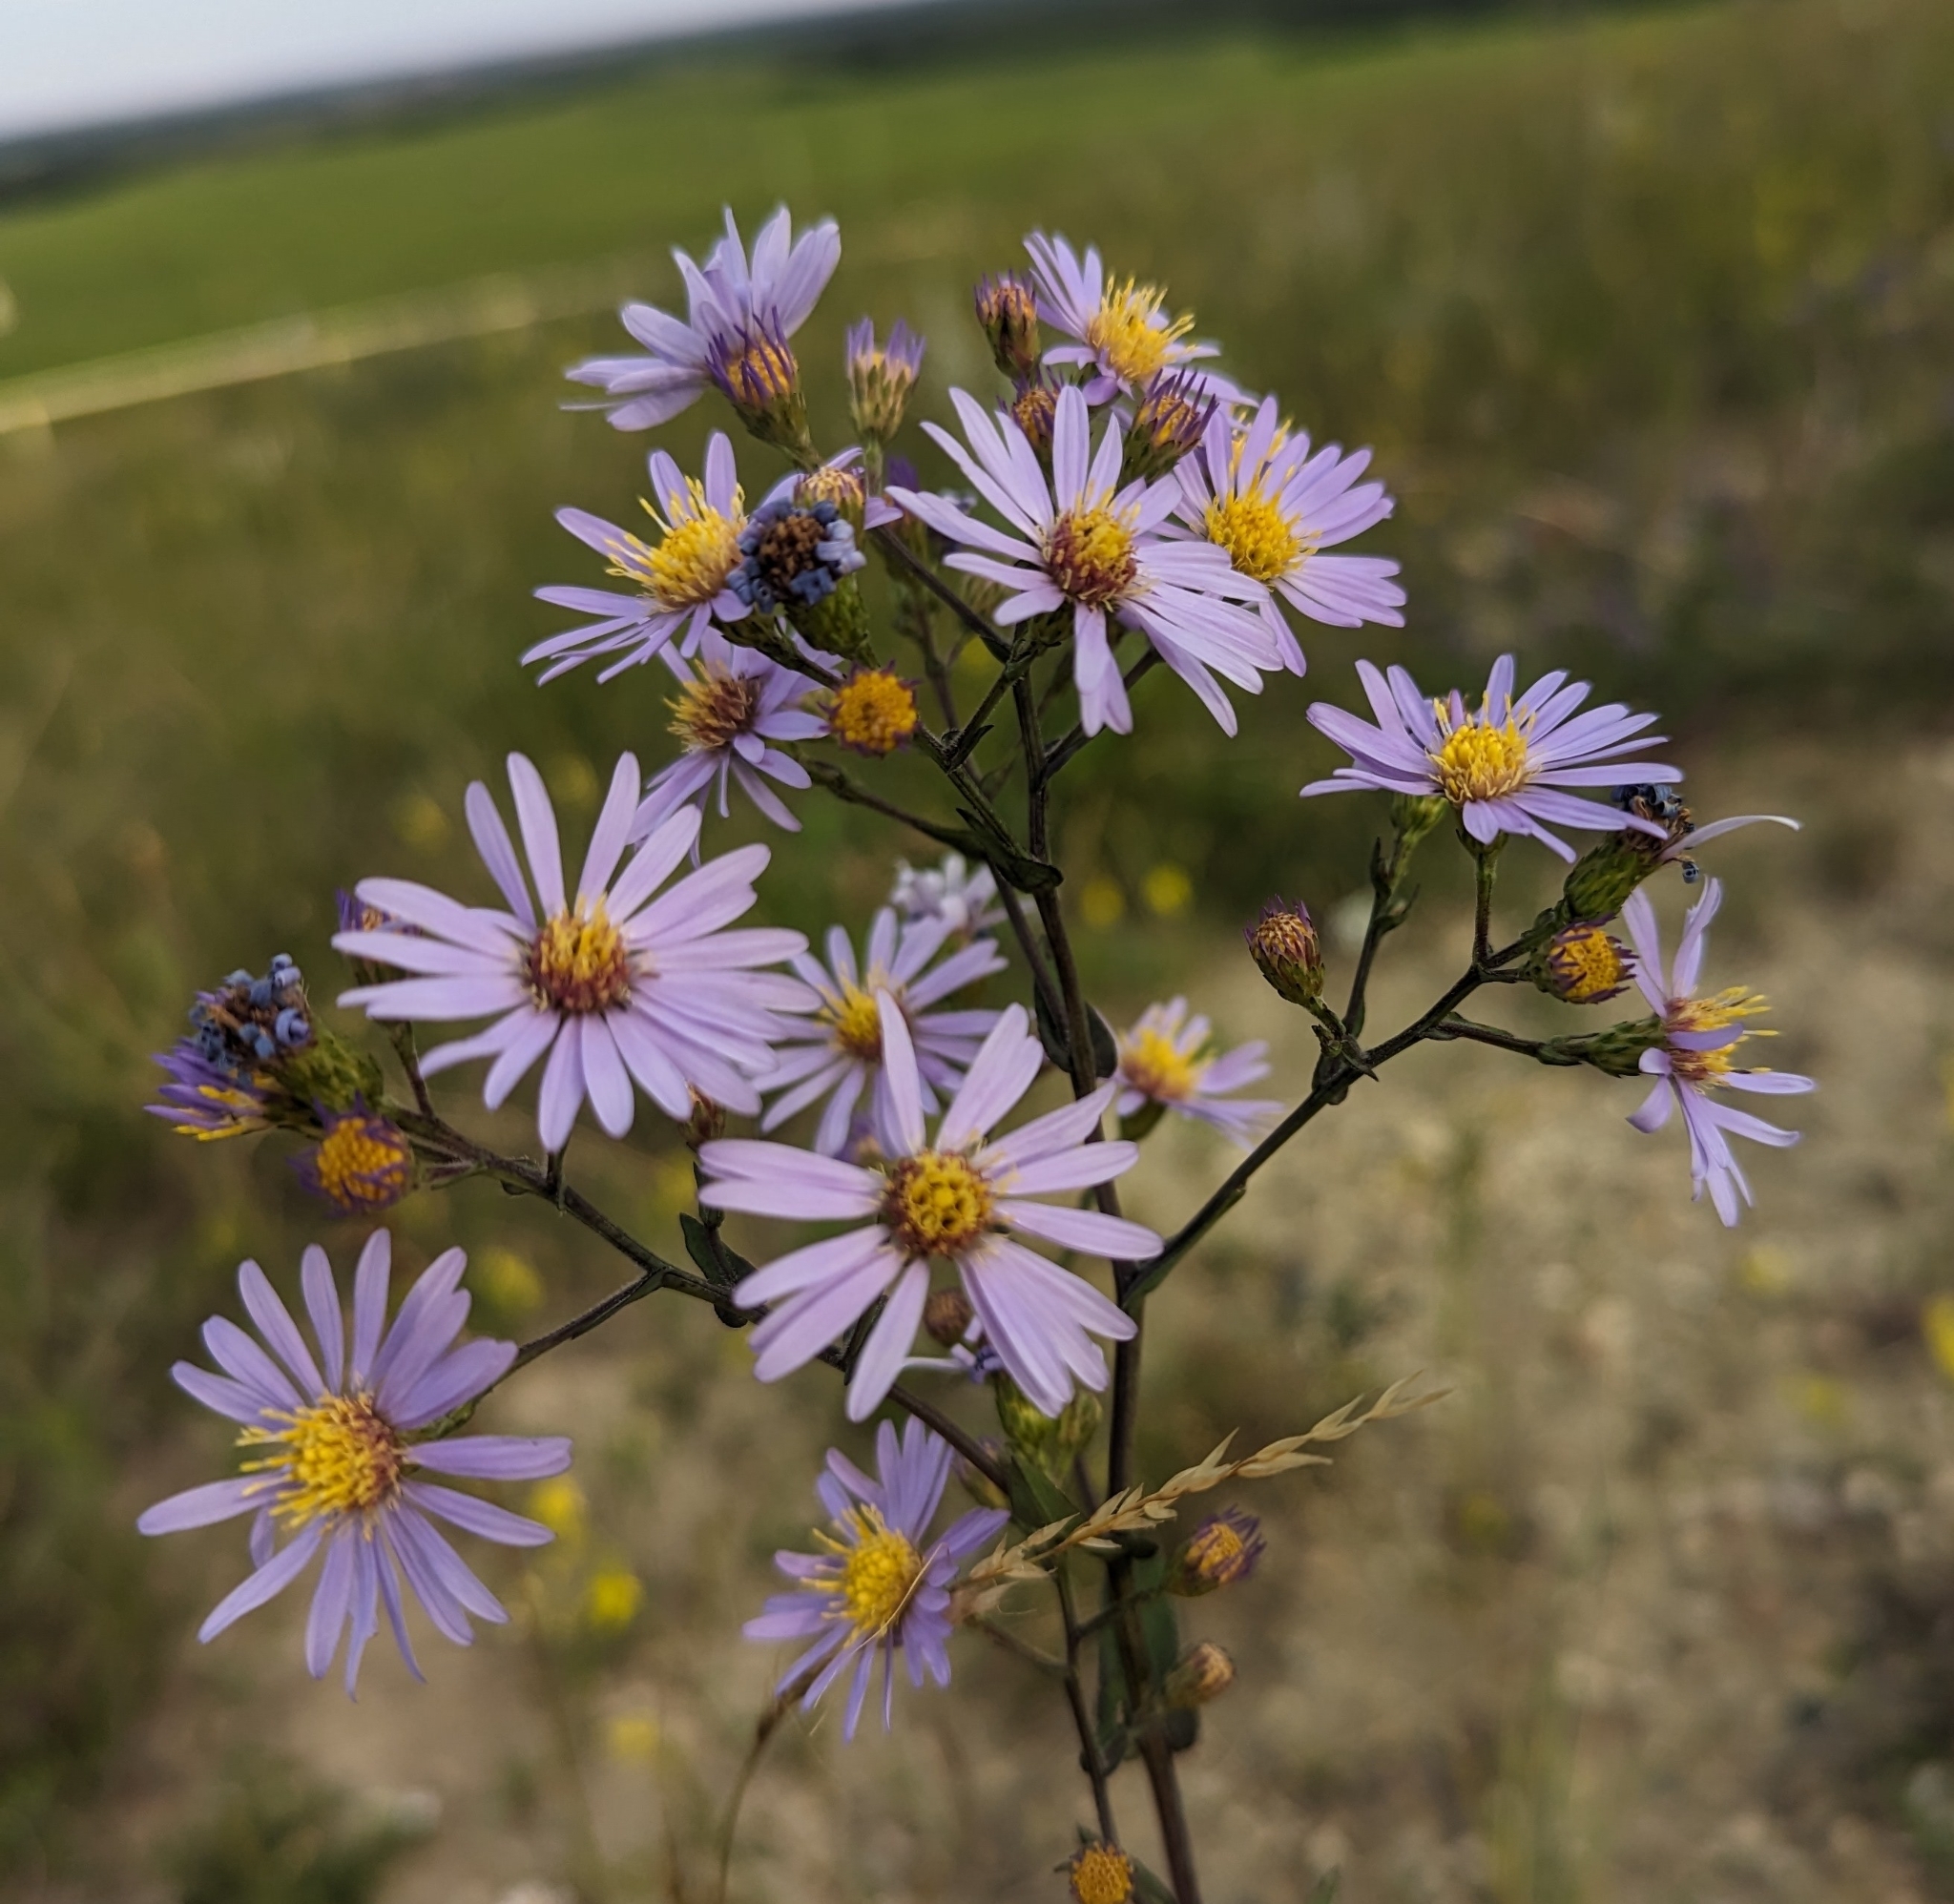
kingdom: Plantae
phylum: Tracheophyta
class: Magnoliopsida
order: Asterales
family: Asteraceae
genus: Symphyotrichum
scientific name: Symphyotrichum laeve
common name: Glaucous aster
